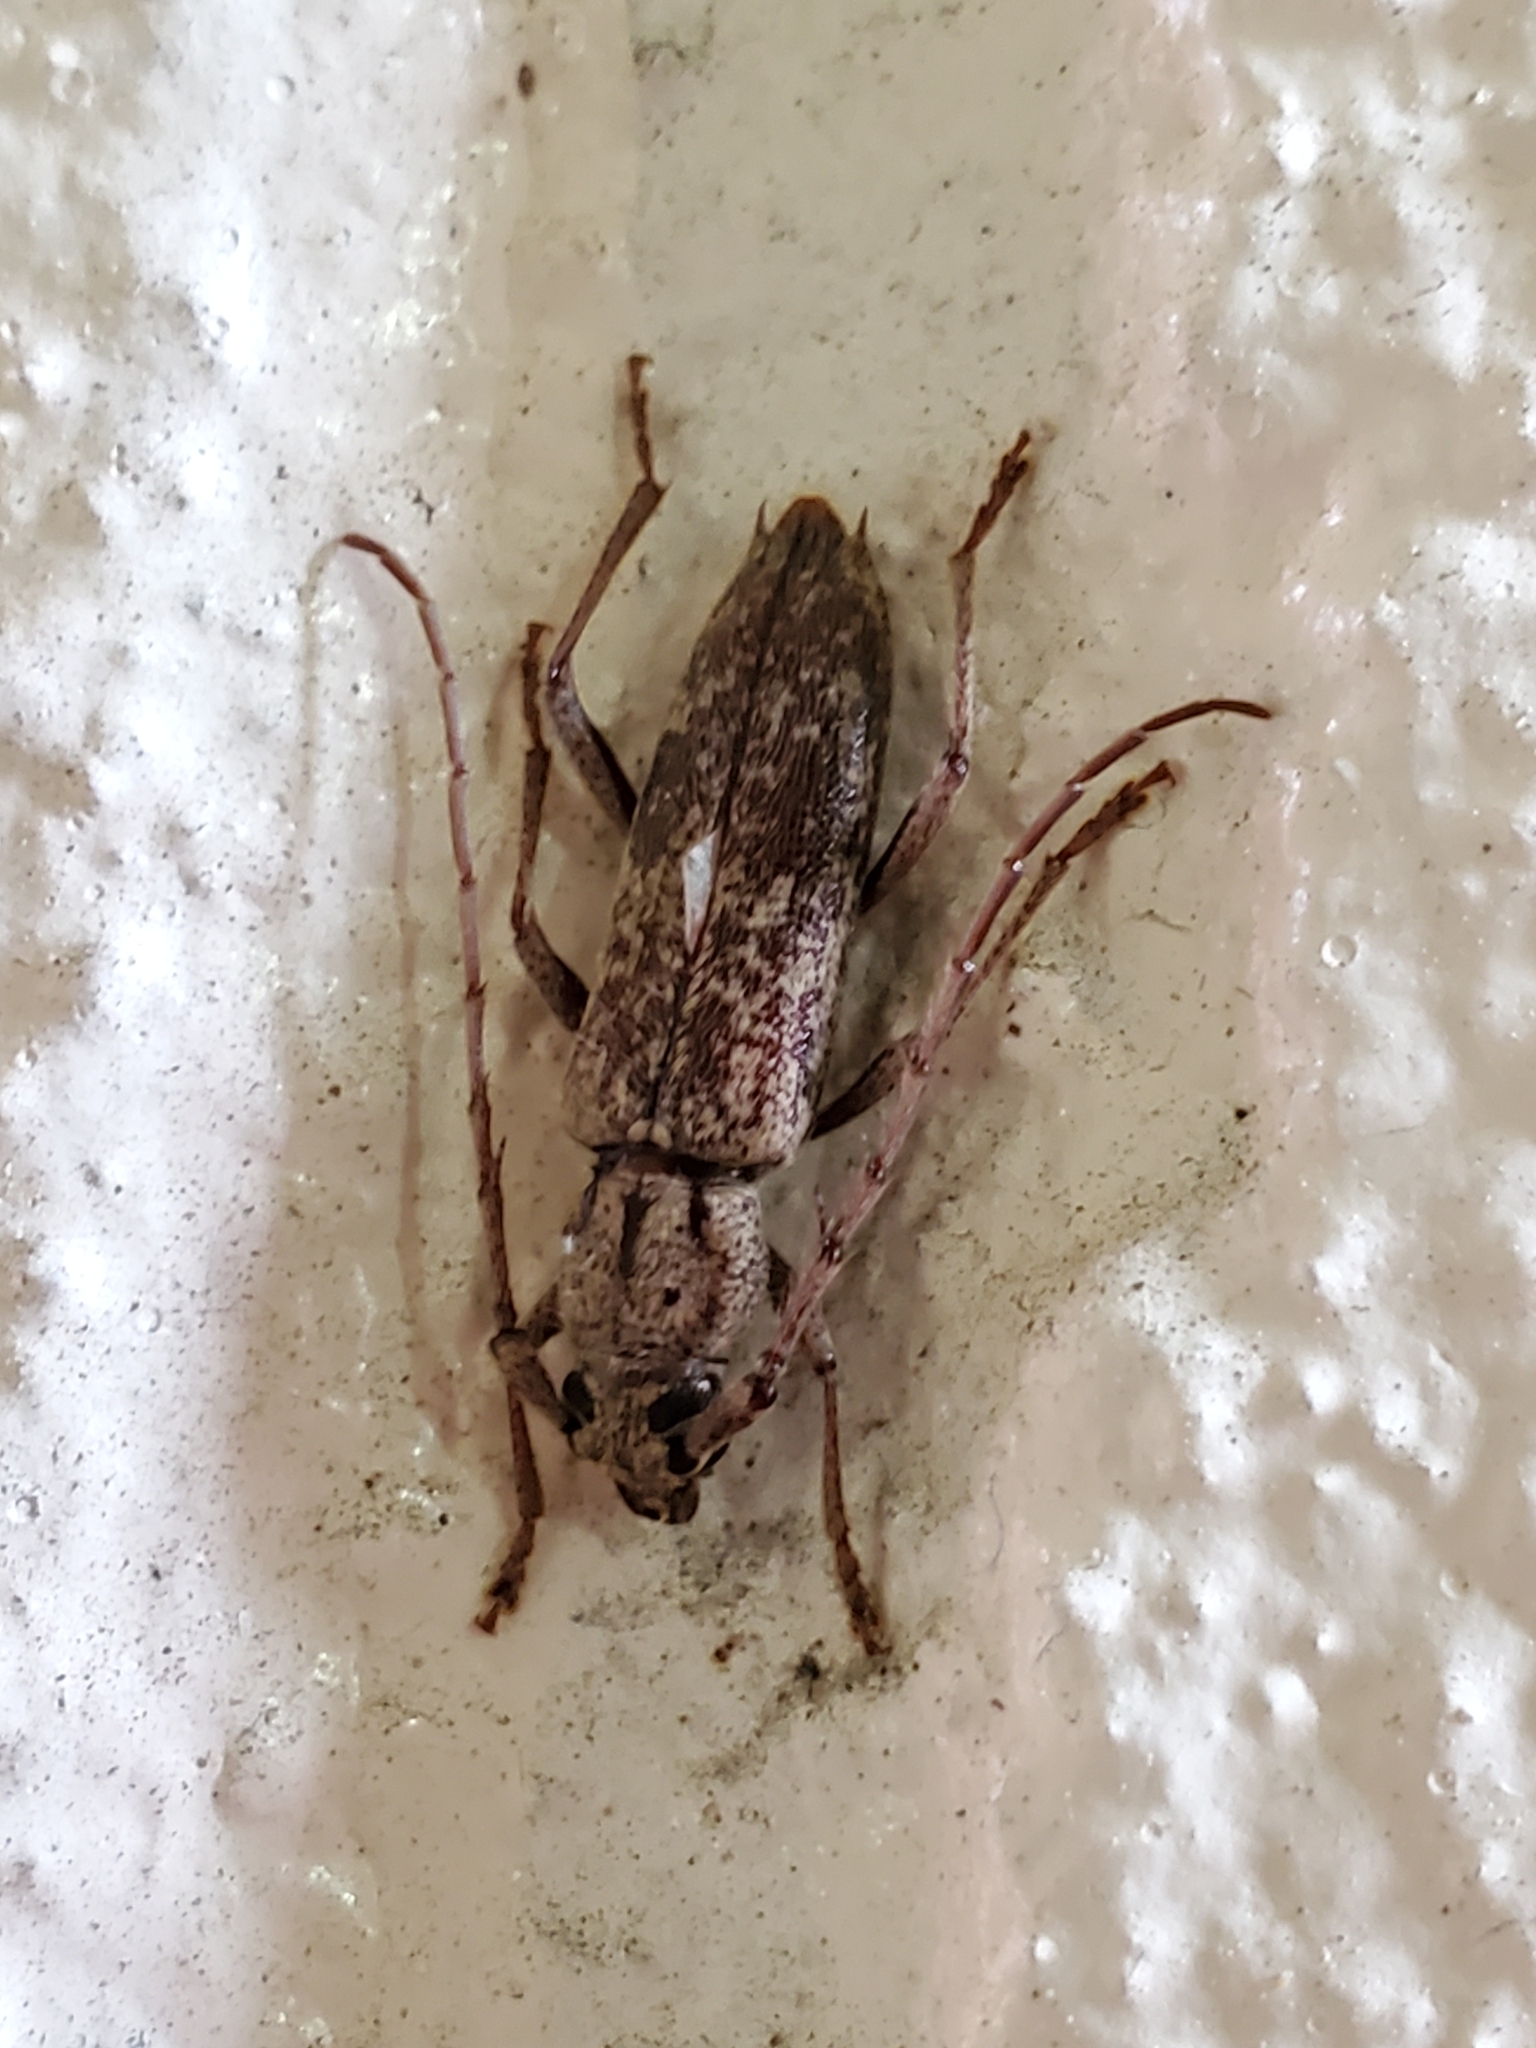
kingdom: Animalia
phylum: Arthropoda
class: Insecta
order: Coleoptera
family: Cerambycidae
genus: Elaphidion
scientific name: Elaphidion mucronatum
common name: Spined oak borer
